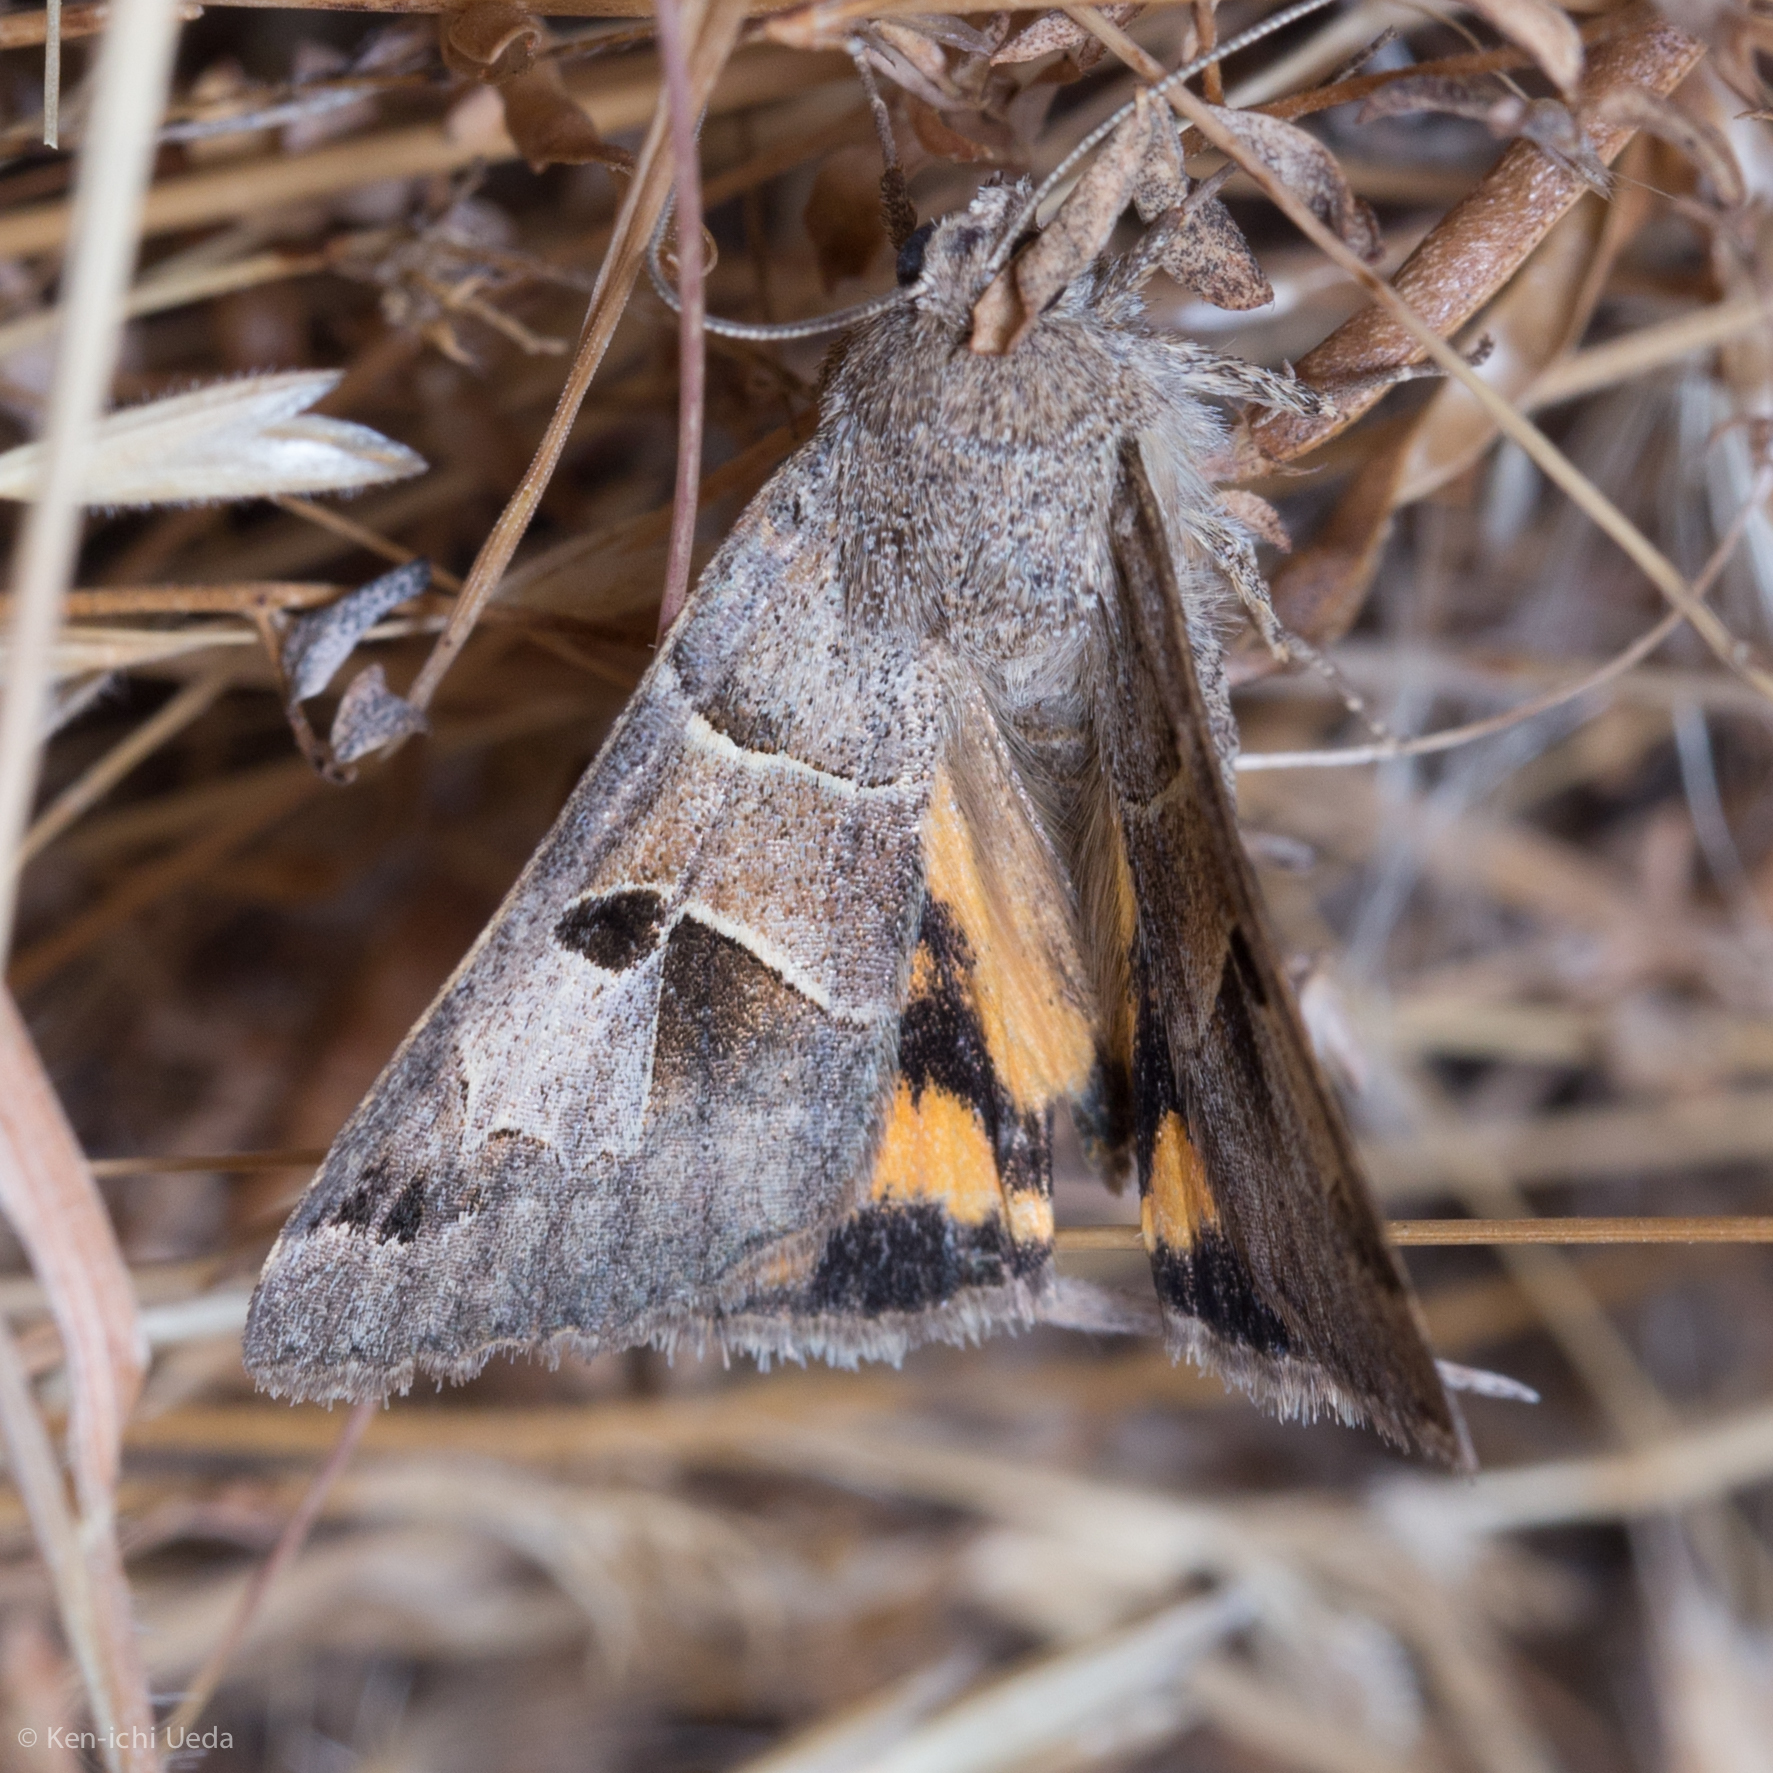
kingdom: Animalia
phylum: Arthropoda
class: Insecta
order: Lepidoptera
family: Erebidae
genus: Drasteria
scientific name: Drasteria edwardsii
